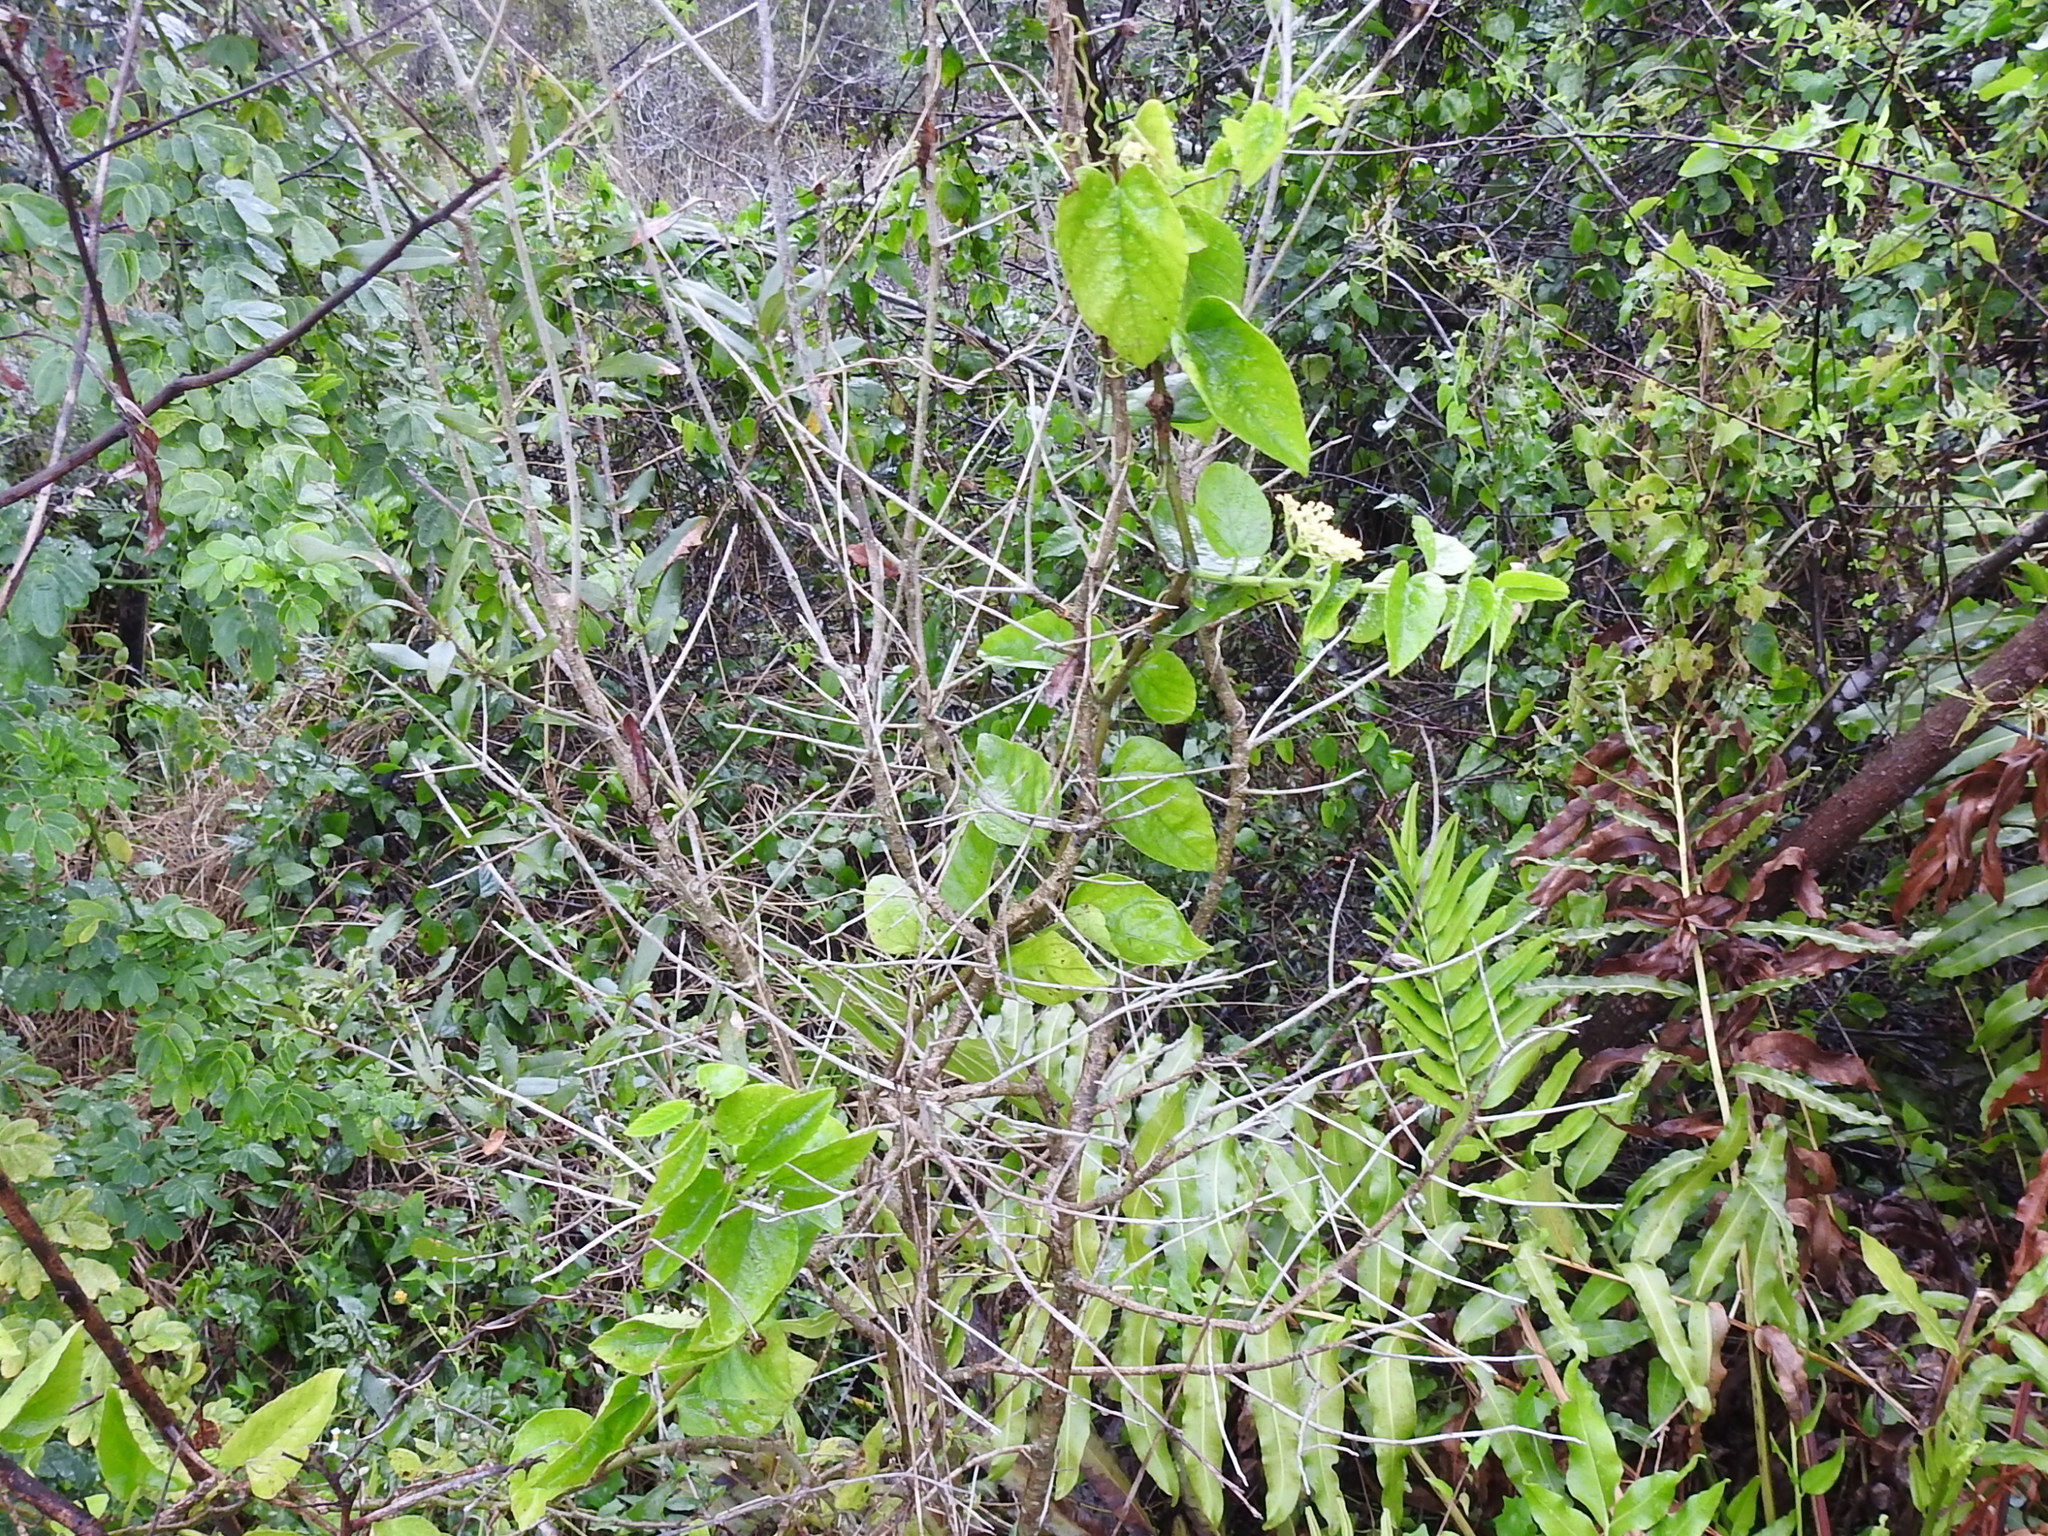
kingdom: Plantae
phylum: Tracheophyta
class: Magnoliopsida
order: Vitales
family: Vitaceae
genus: Cissus
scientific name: Cissus verticillata
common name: Princess vine
